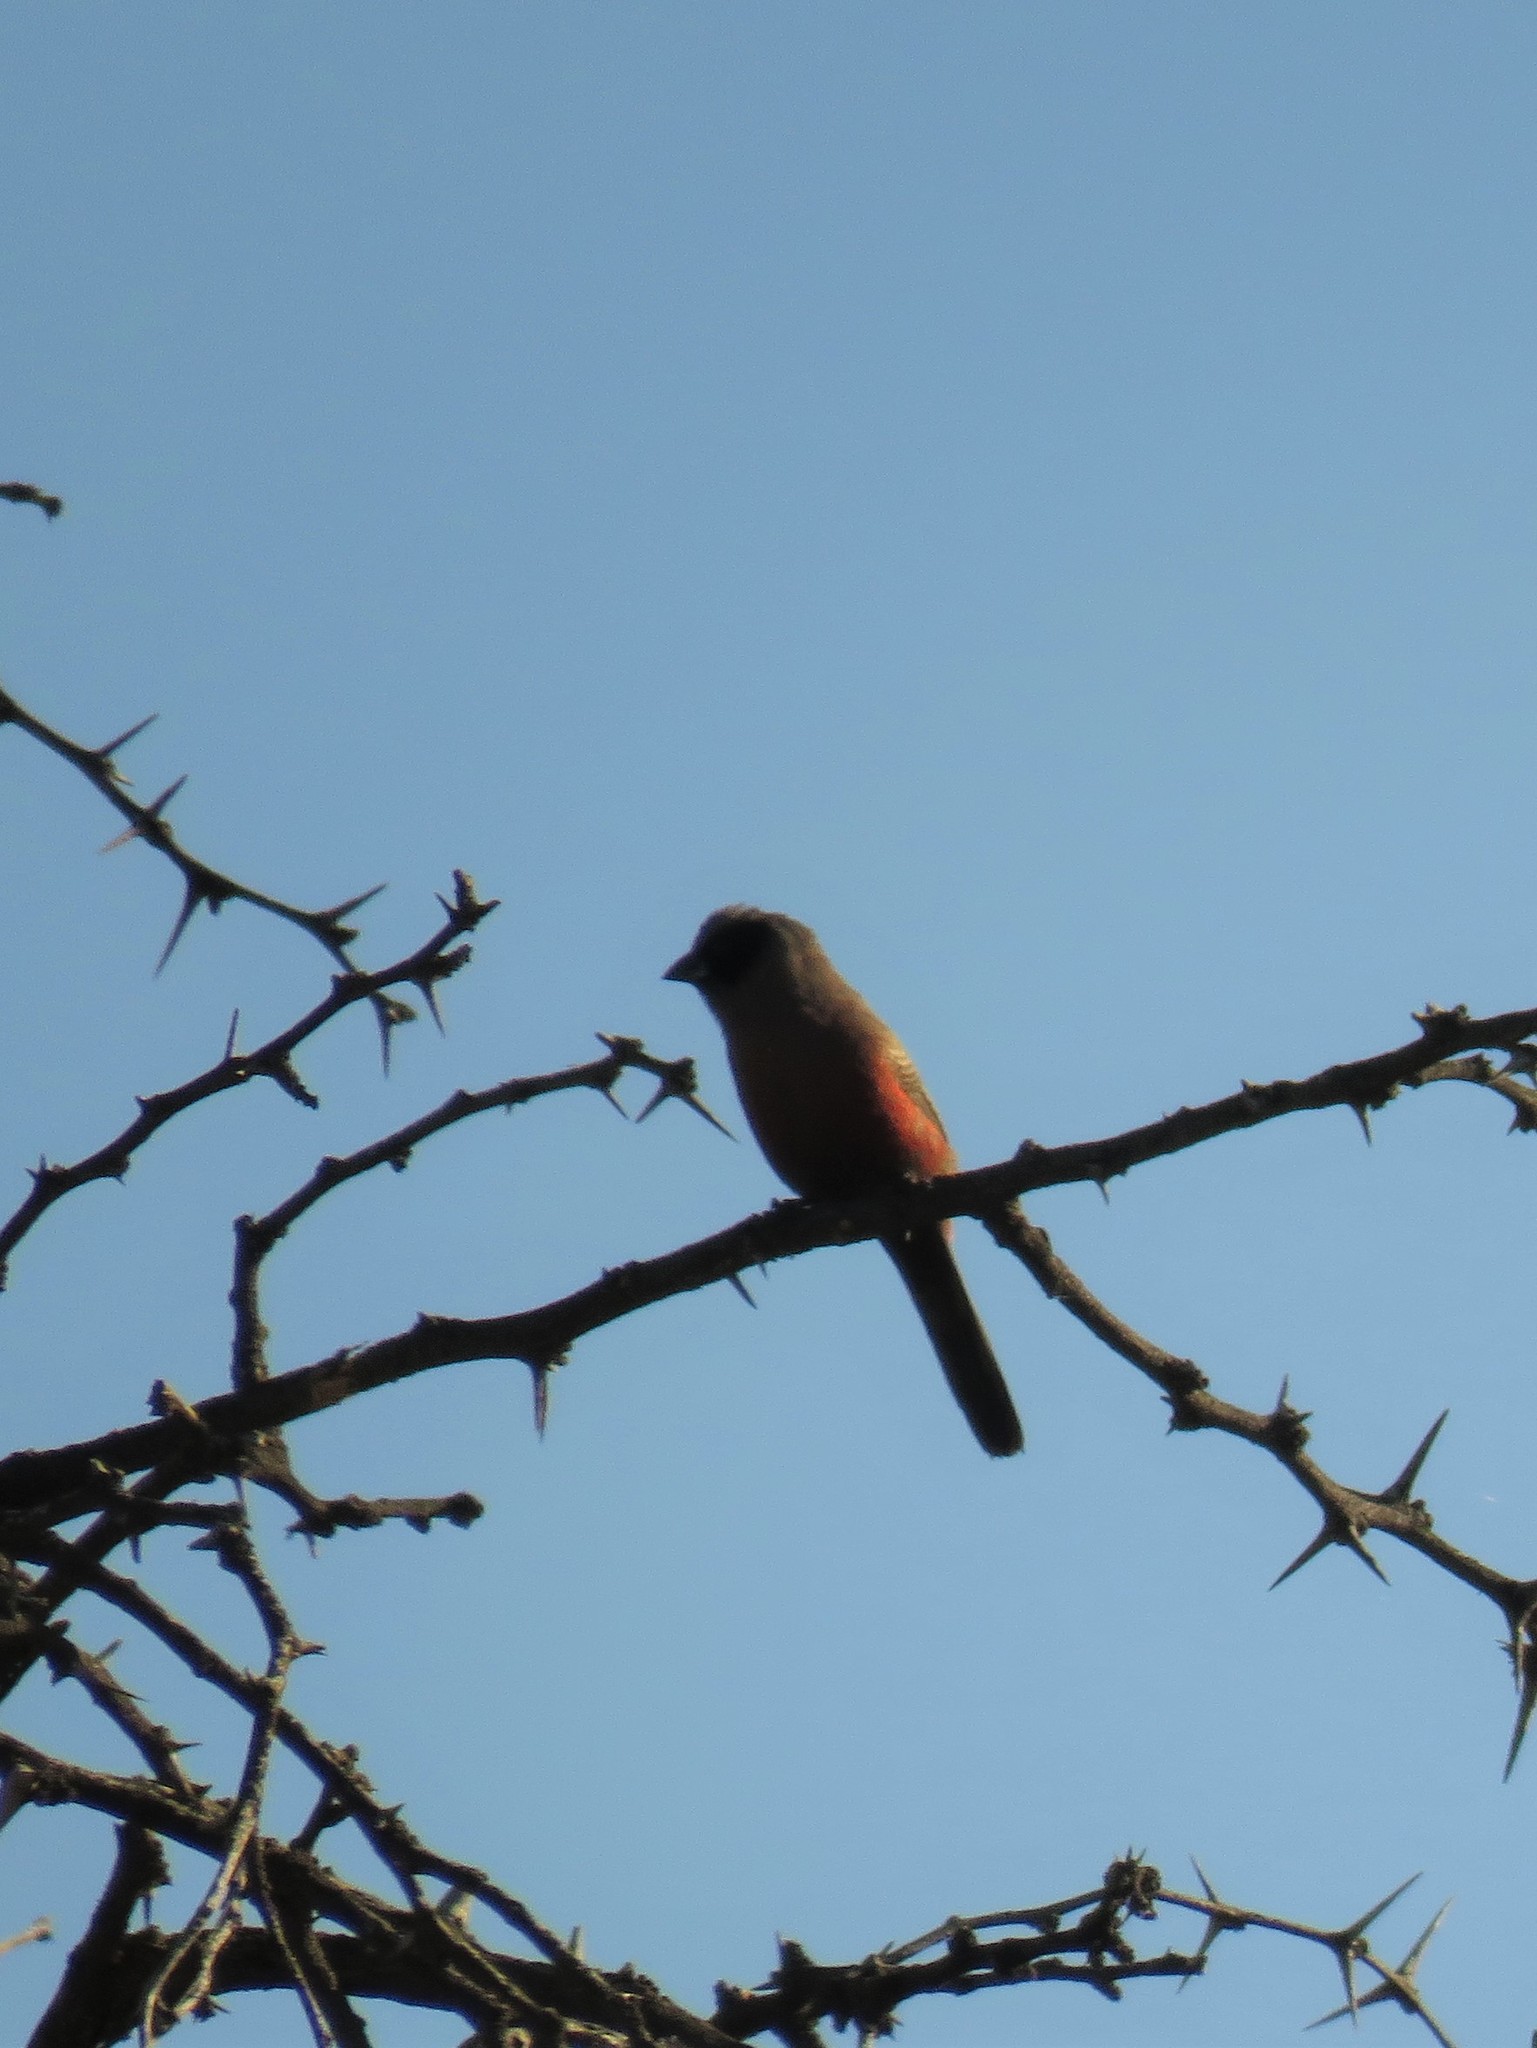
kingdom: Animalia
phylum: Chordata
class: Aves
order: Passeriformes
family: Estrildidae
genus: Estrilda
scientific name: Estrilda erythronotos
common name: Black-faced waxbill
